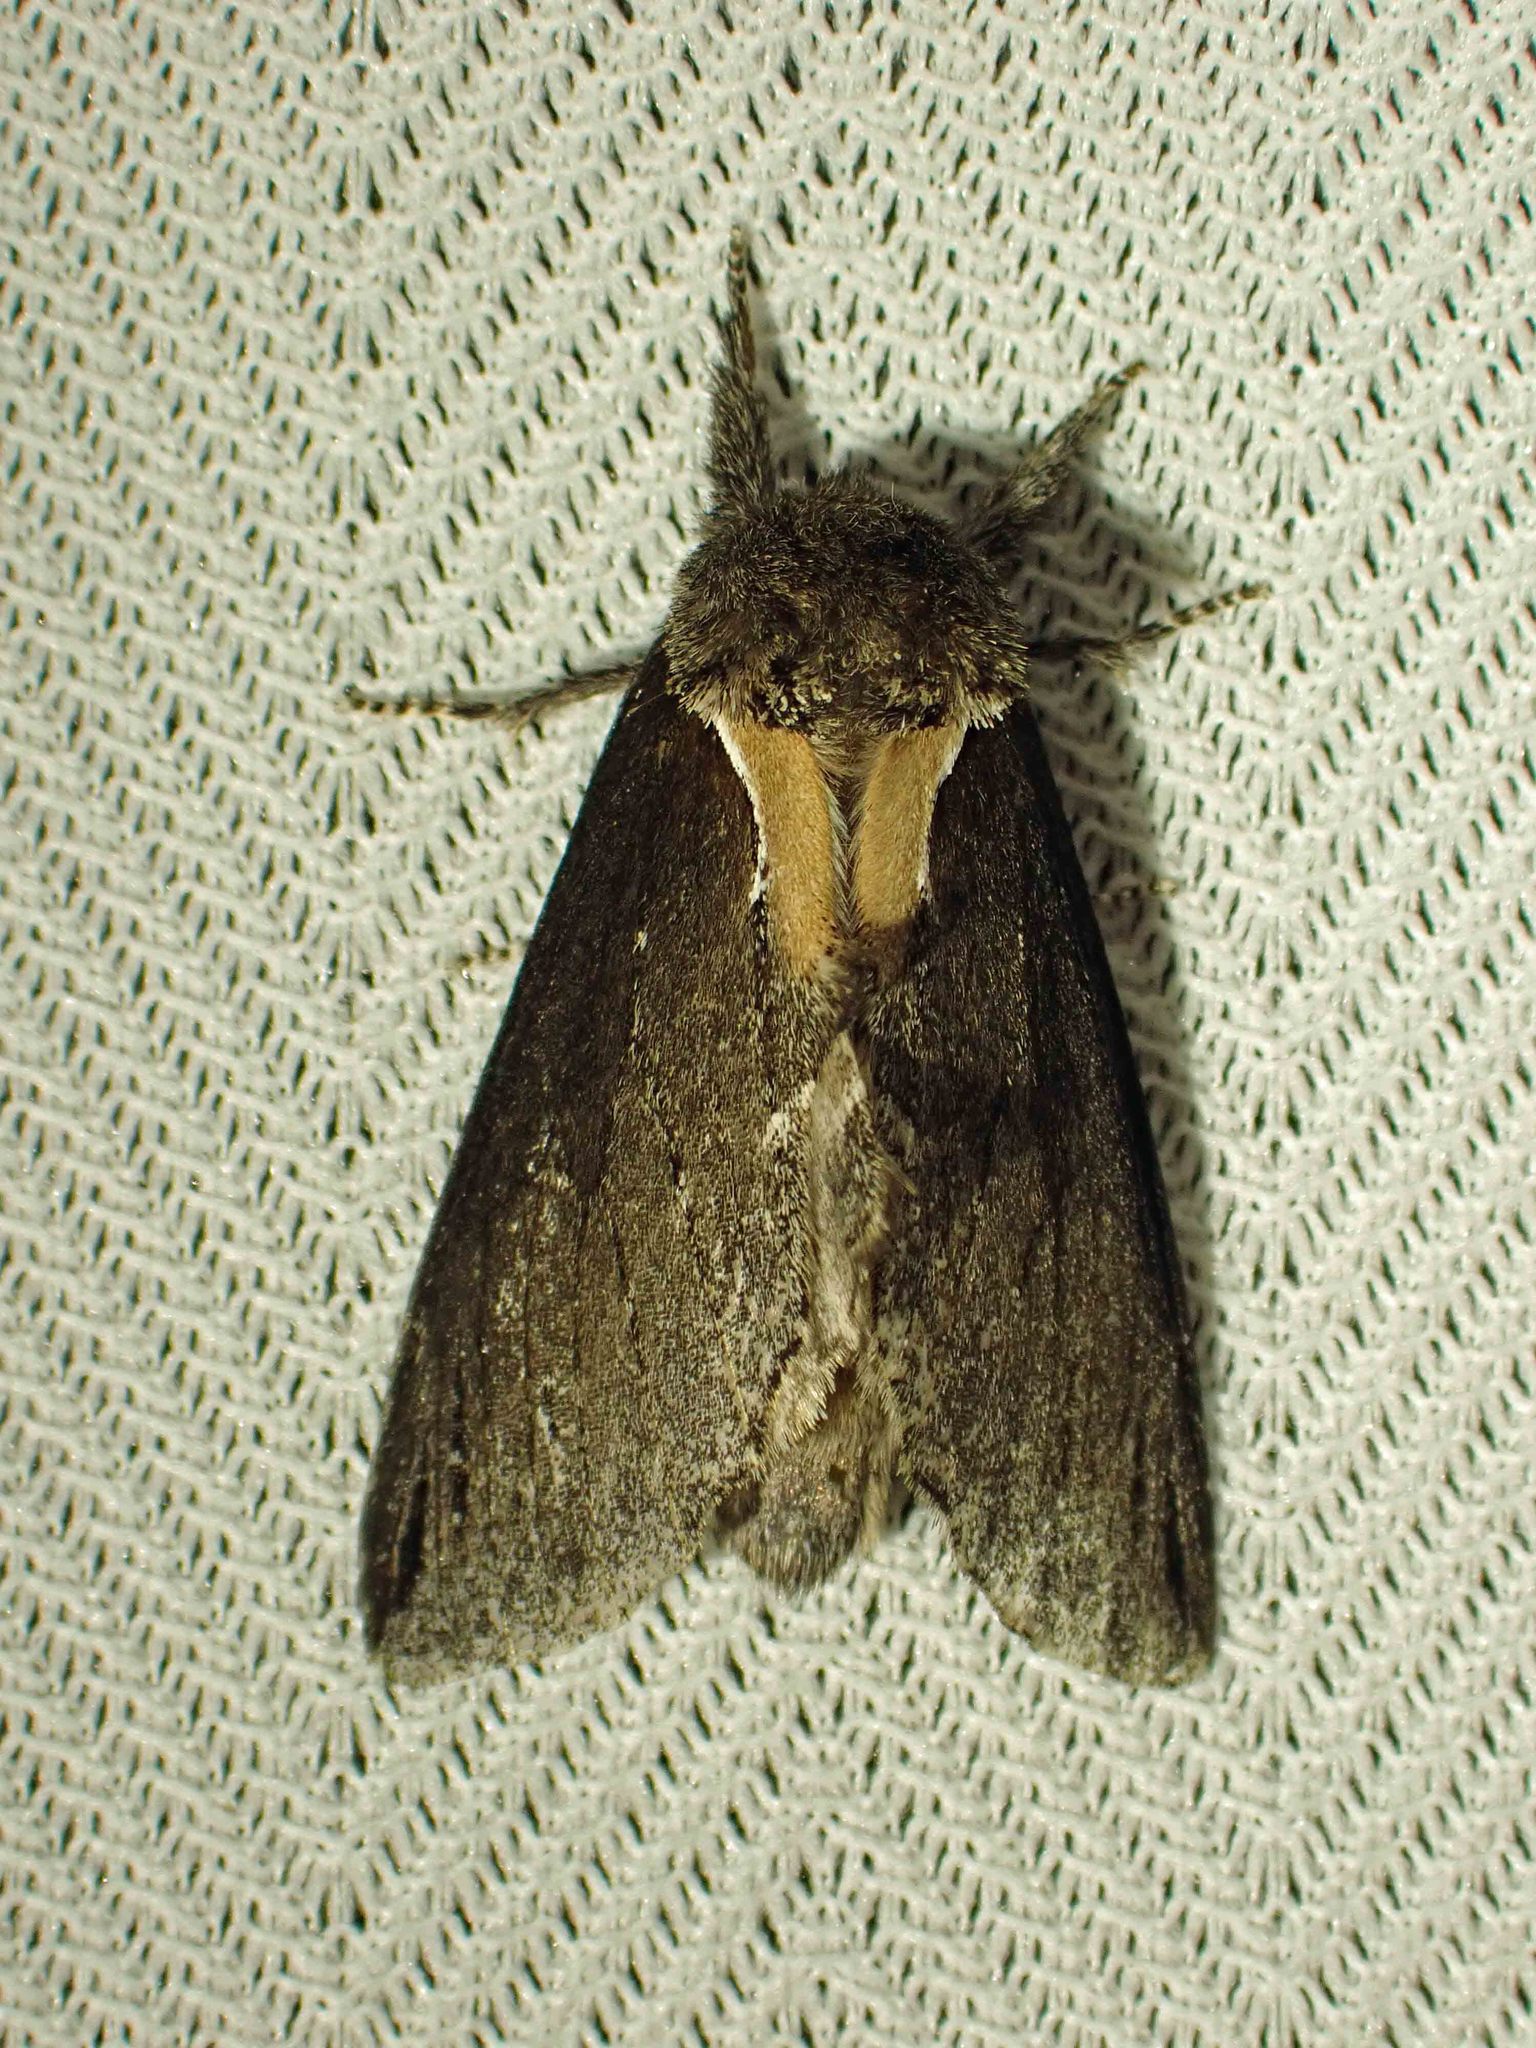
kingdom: Animalia
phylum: Arthropoda
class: Insecta
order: Lepidoptera
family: Notodontidae
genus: Pheosidea
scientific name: Pheosidea elegans
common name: Elegant prominent
